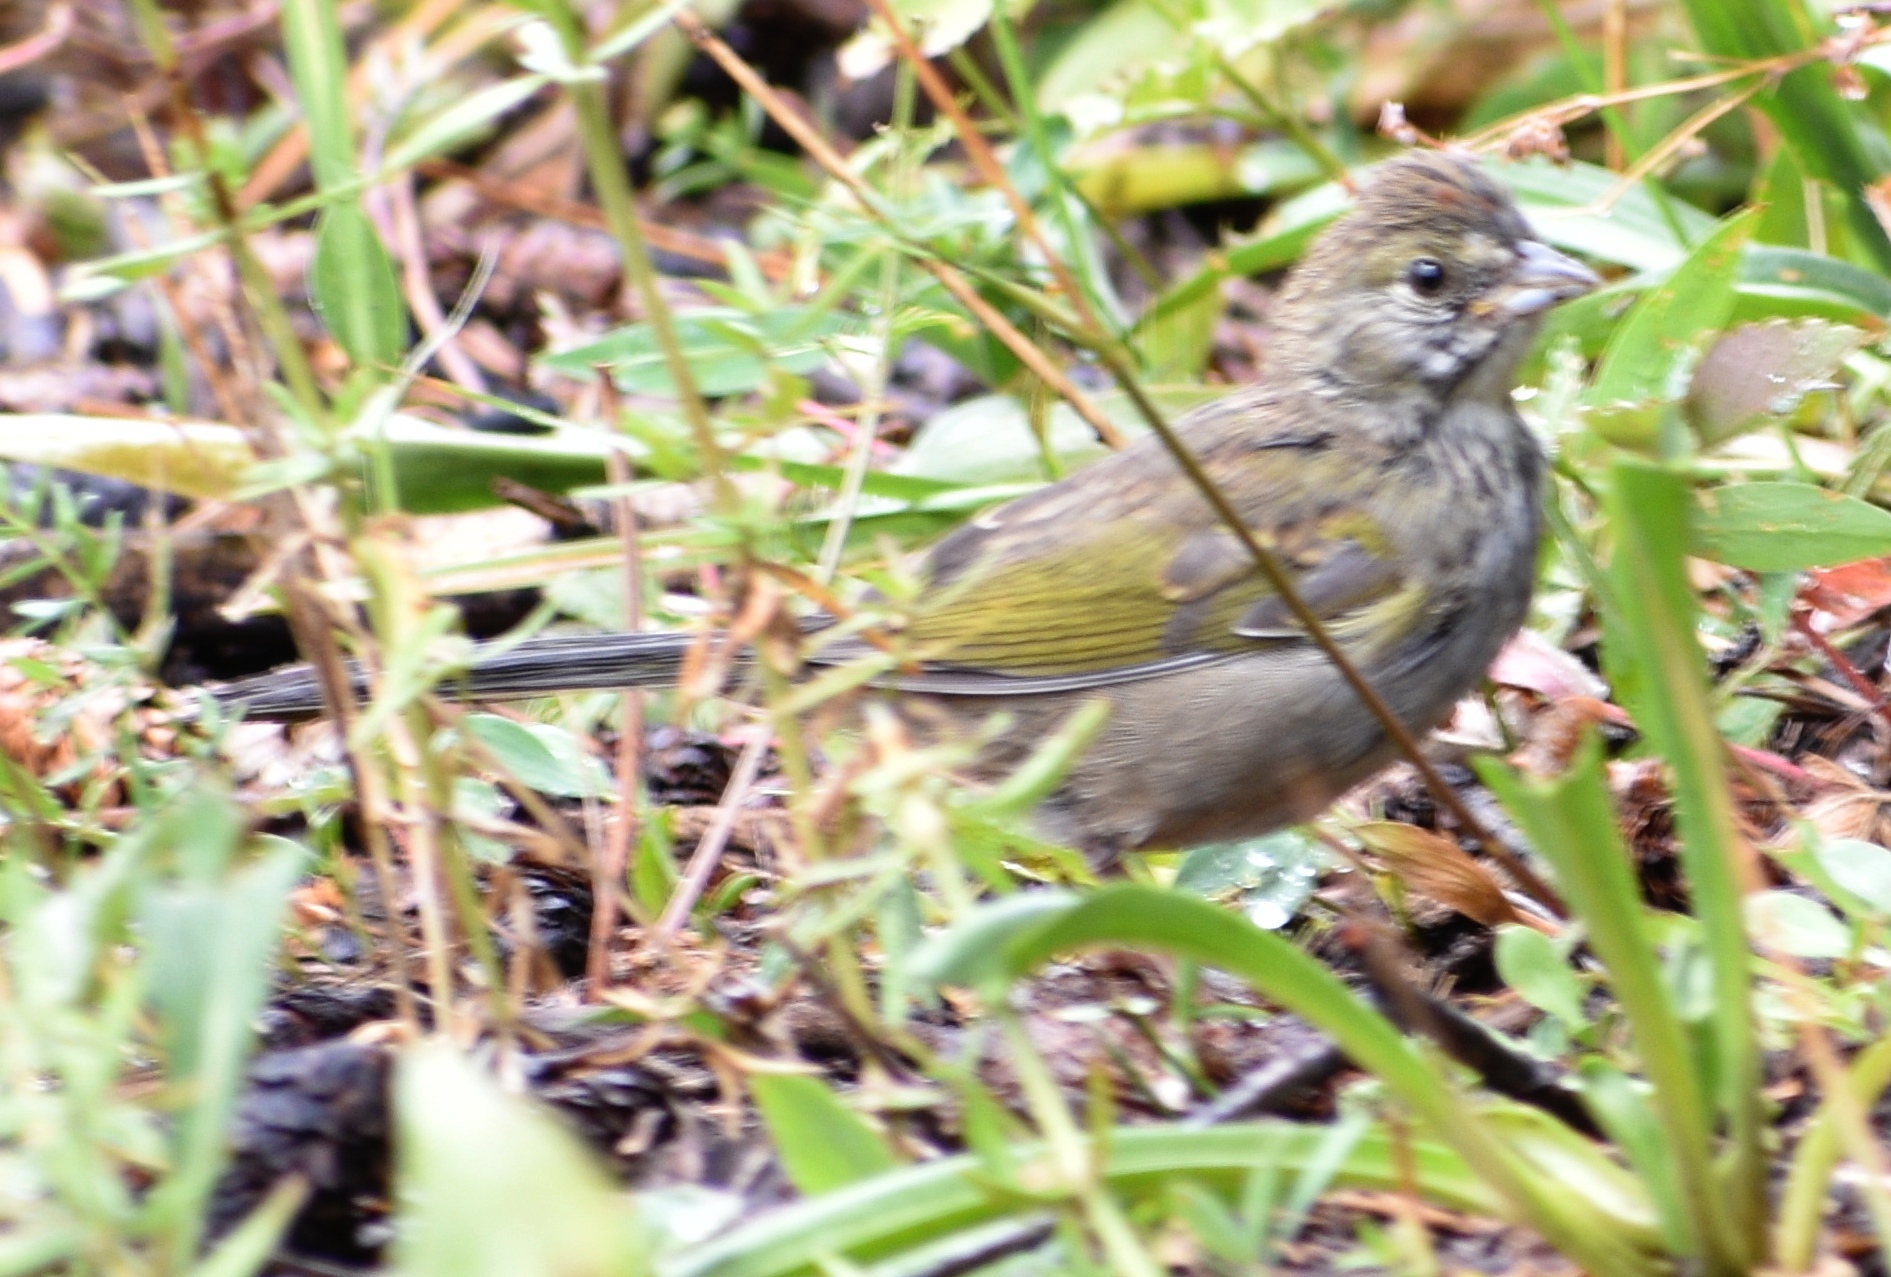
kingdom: Animalia
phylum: Chordata
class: Aves
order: Passeriformes
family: Passerellidae
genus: Pipilo
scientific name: Pipilo chlorurus
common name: Green-tailed towhee
